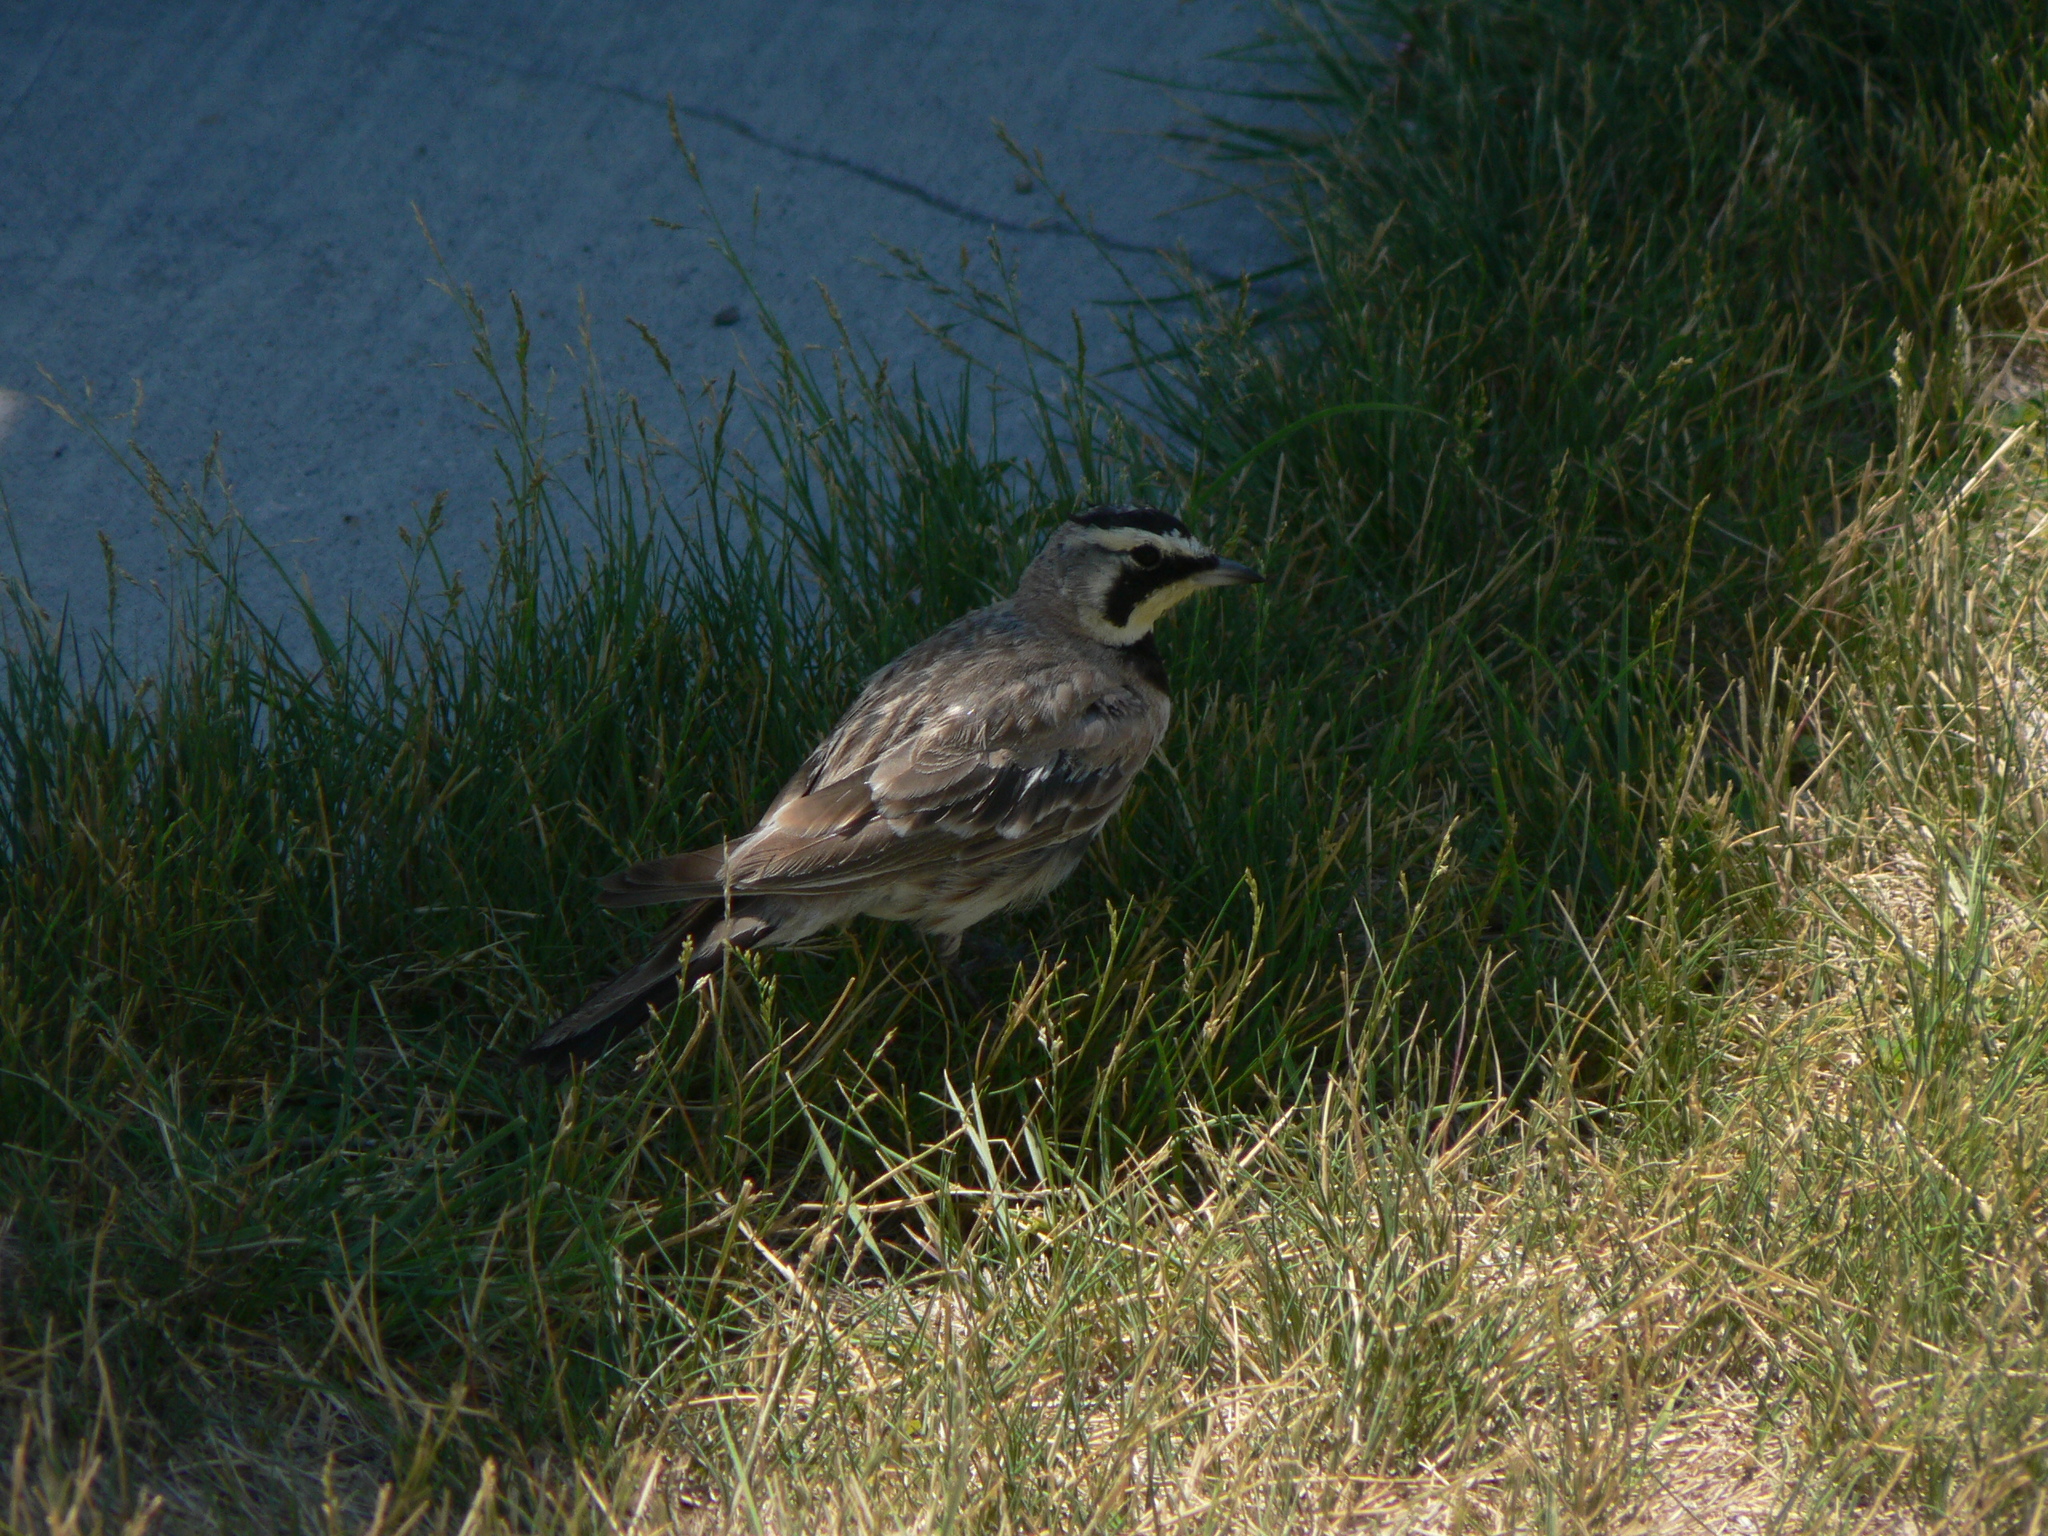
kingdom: Animalia
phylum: Chordata
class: Aves
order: Passeriformes
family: Alaudidae
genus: Eremophila
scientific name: Eremophila alpestris
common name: Horned lark
